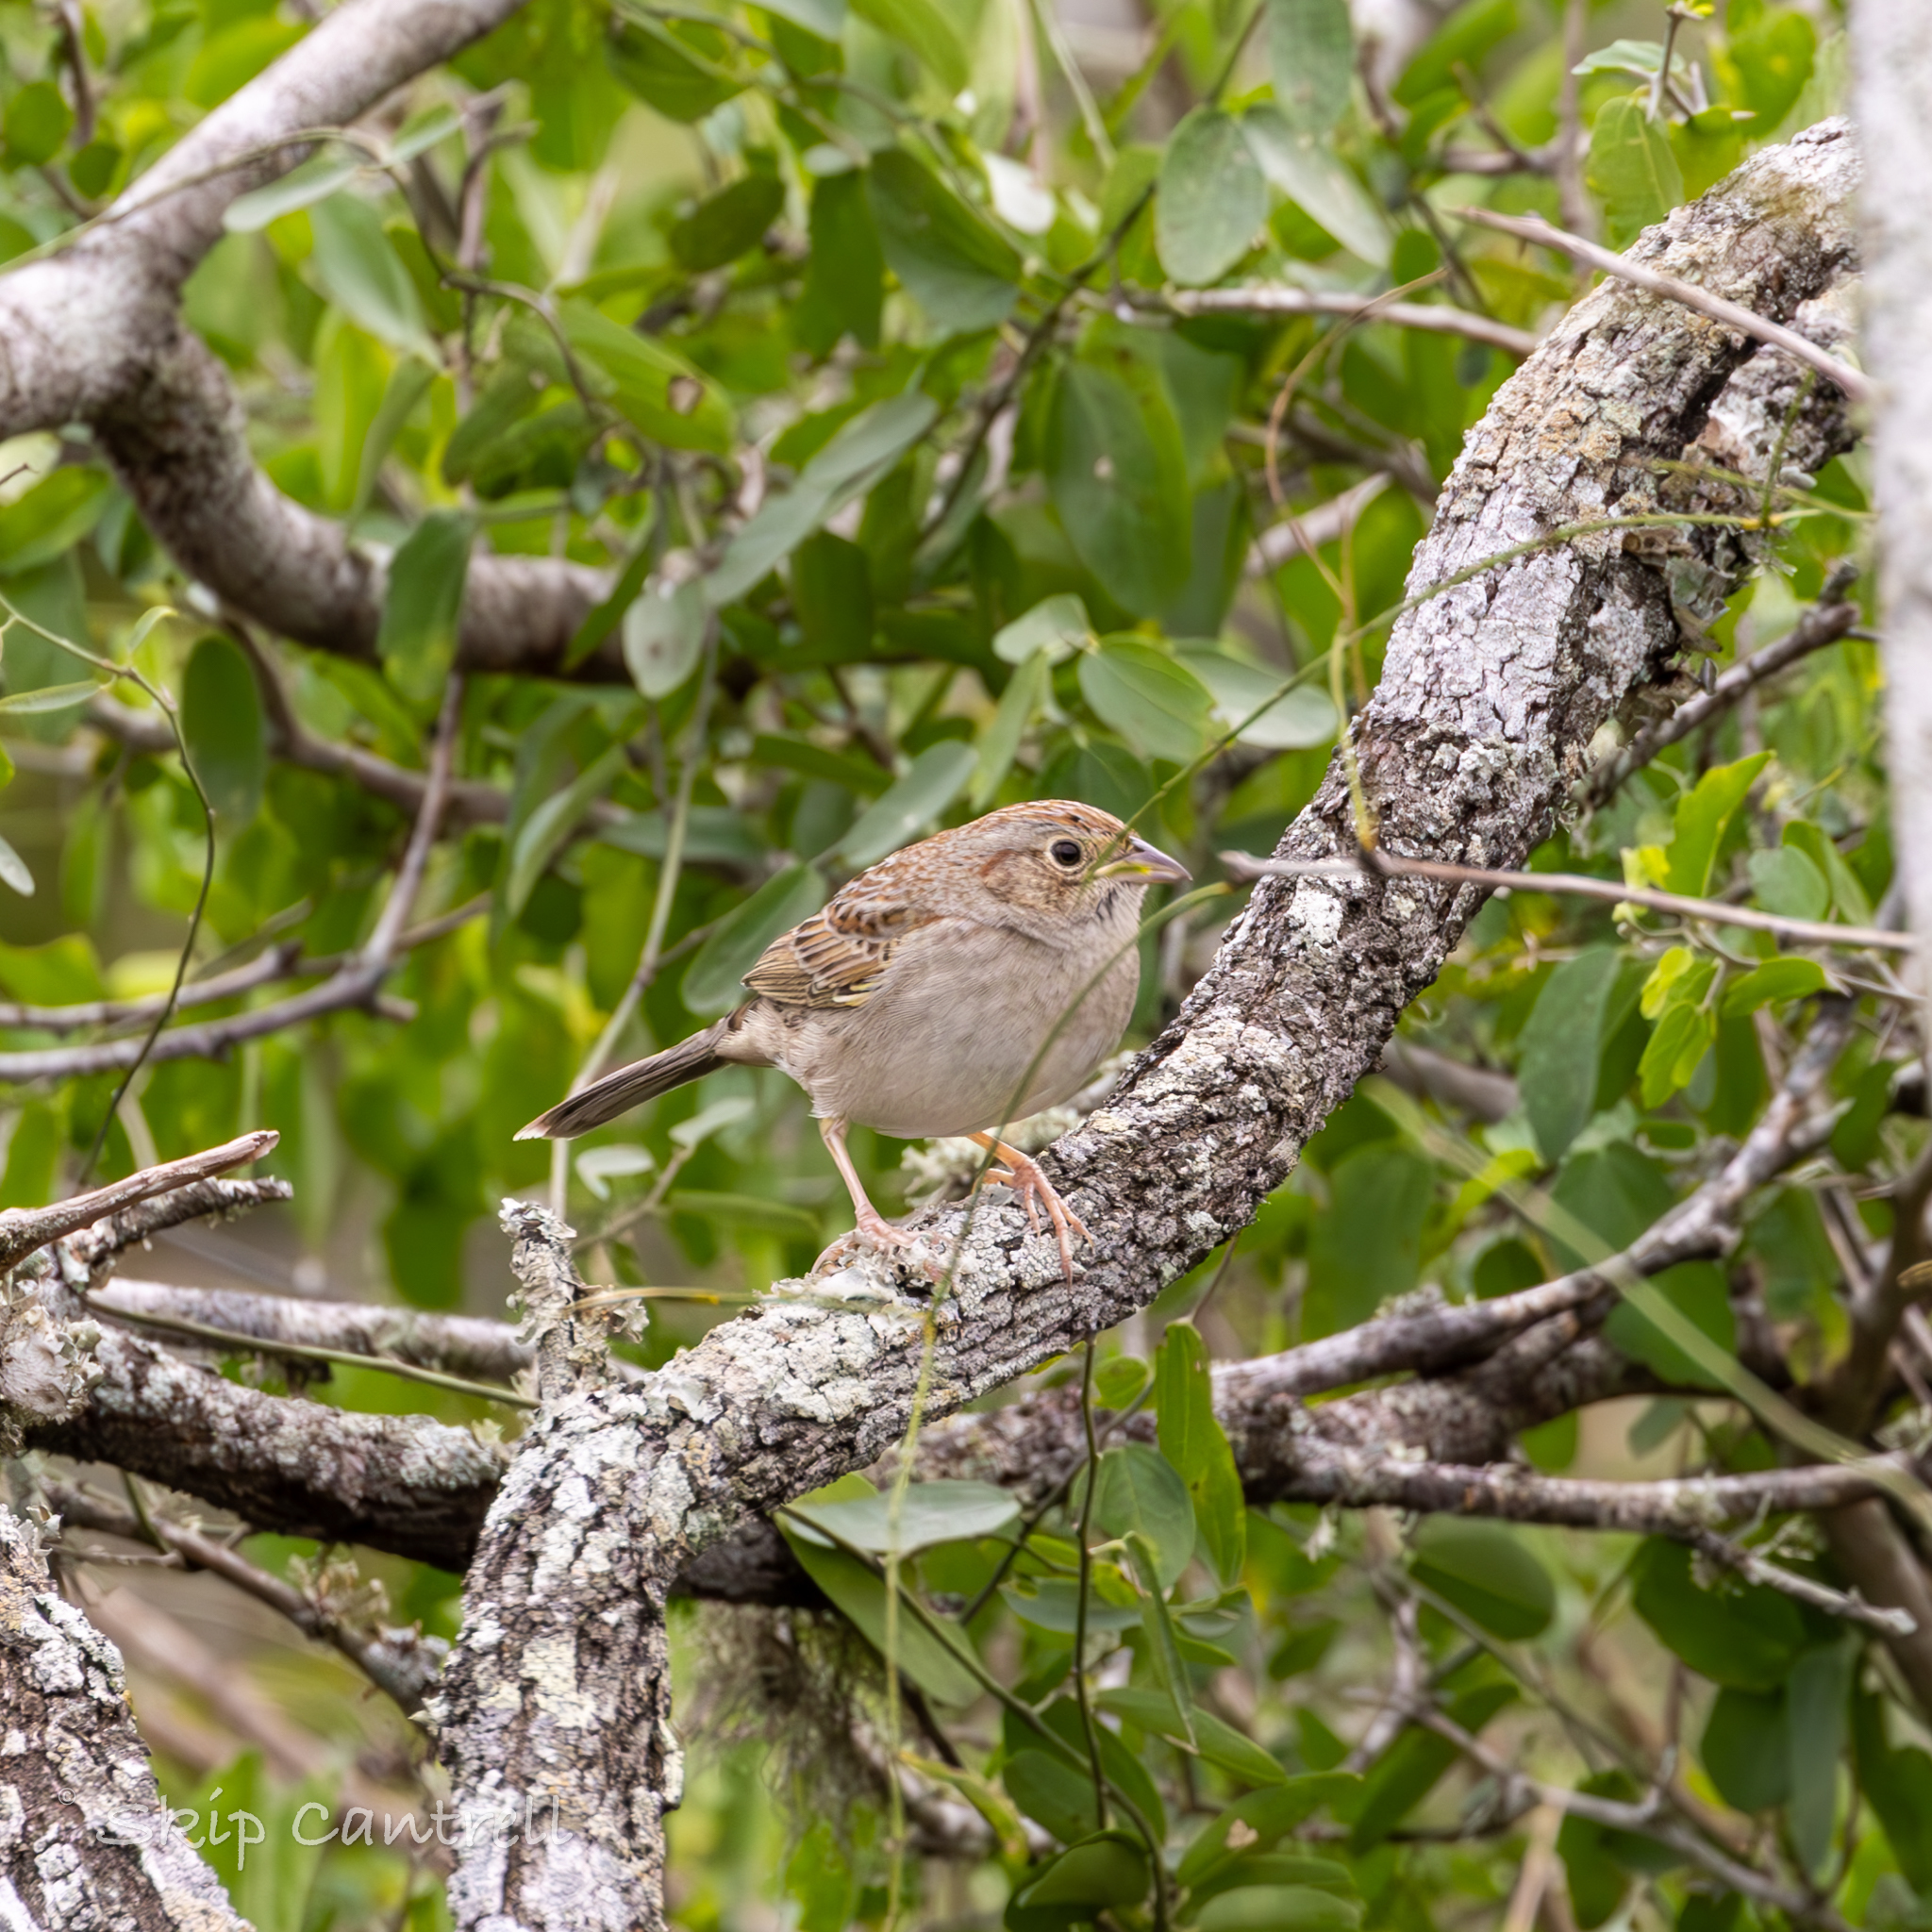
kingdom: Animalia
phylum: Chordata
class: Aves
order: Passeriformes
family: Passerellidae
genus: Peucaea
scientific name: Peucaea cassinii
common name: Cassin's sparrow
